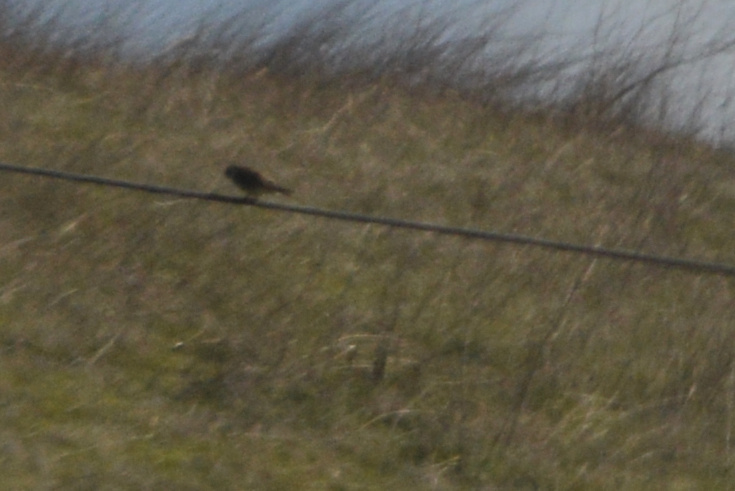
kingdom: Animalia
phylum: Chordata
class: Aves
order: Falconiformes
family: Falconidae
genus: Falco
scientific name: Falco sparverius
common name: American kestrel
